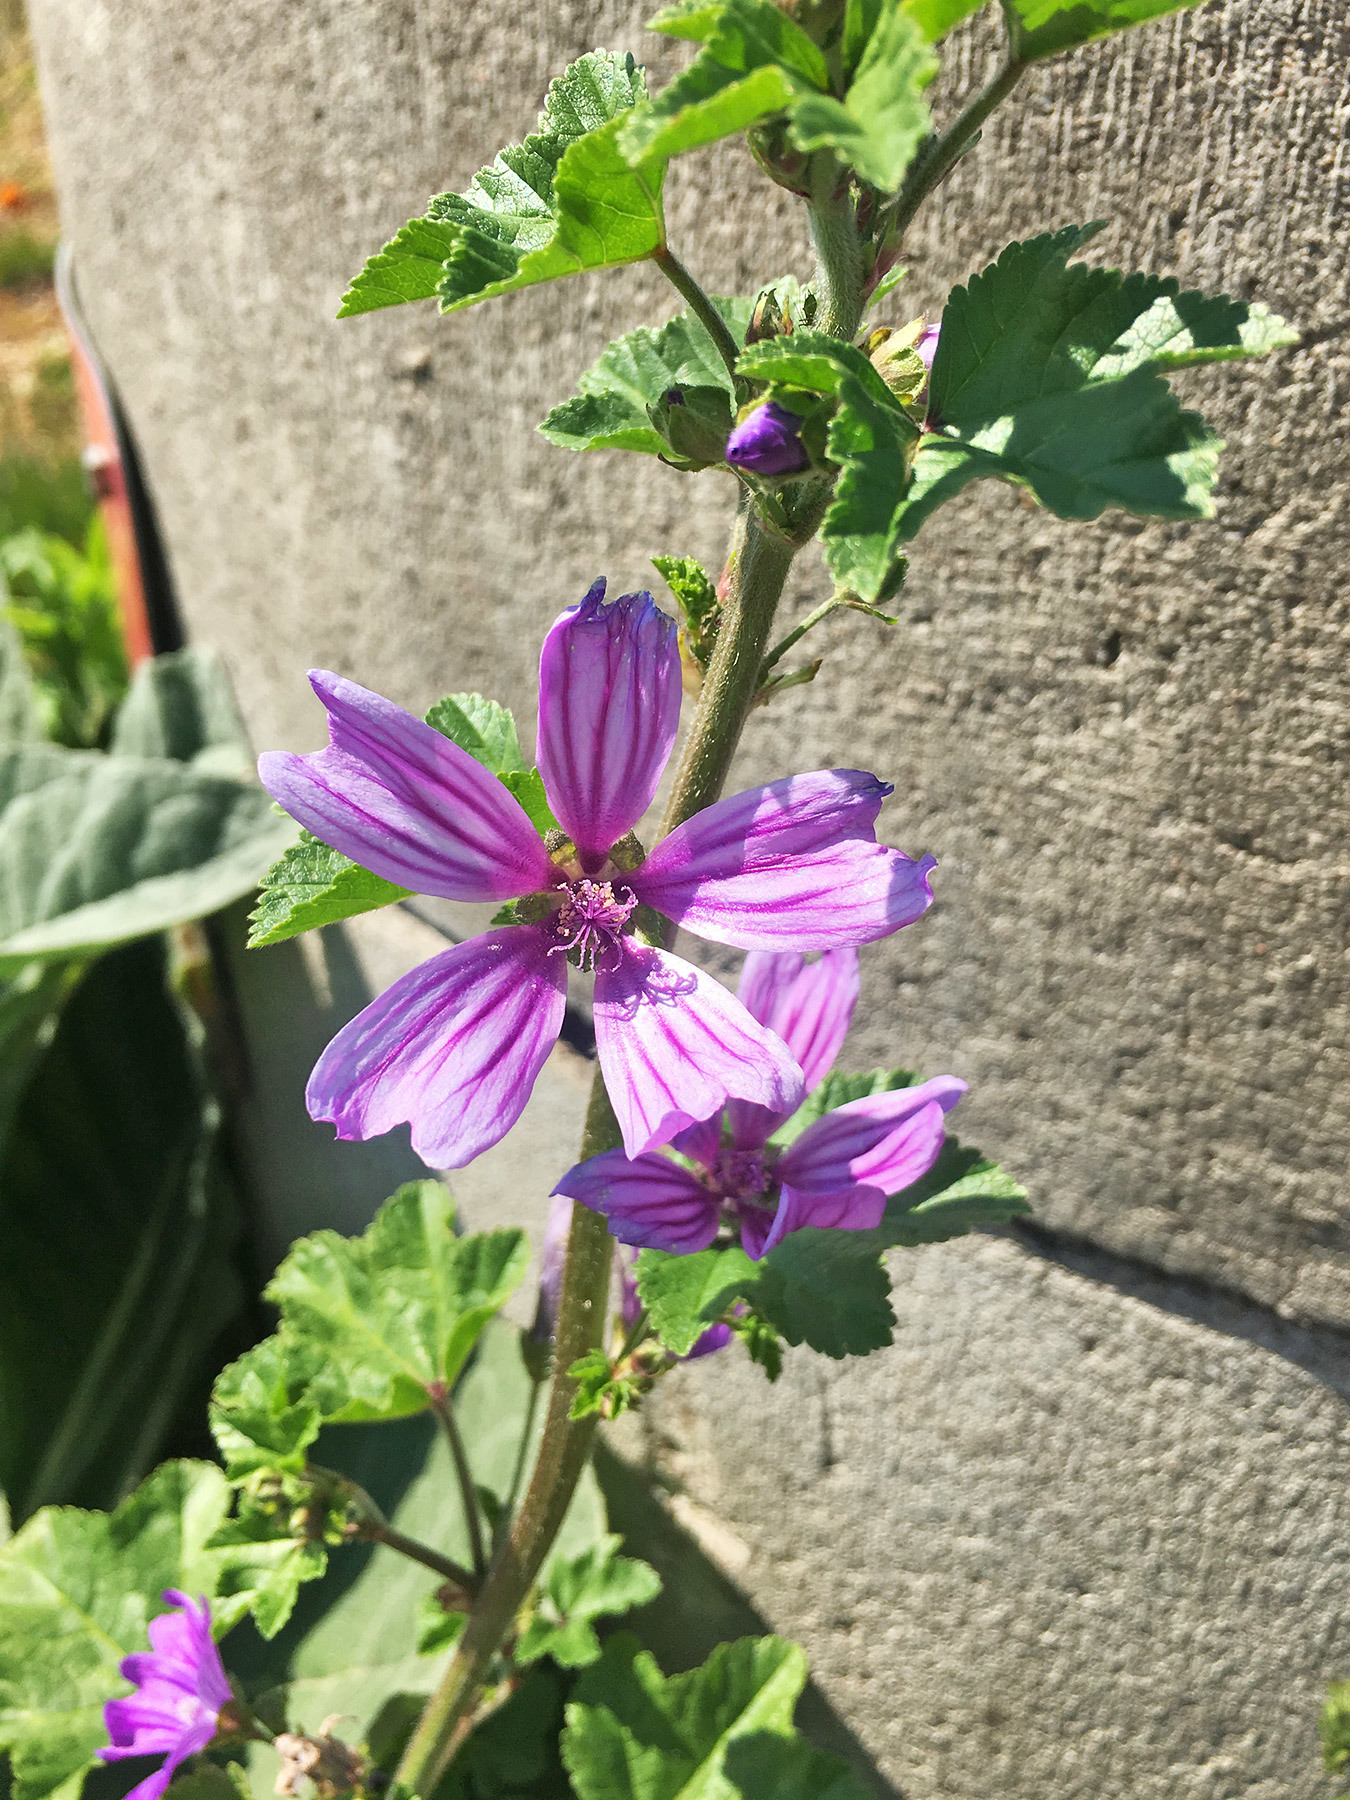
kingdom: Plantae
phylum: Tracheophyta
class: Magnoliopsida
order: Malvales
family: Malvaceae
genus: Malva
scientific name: Malva sylvestris
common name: Common mallow
